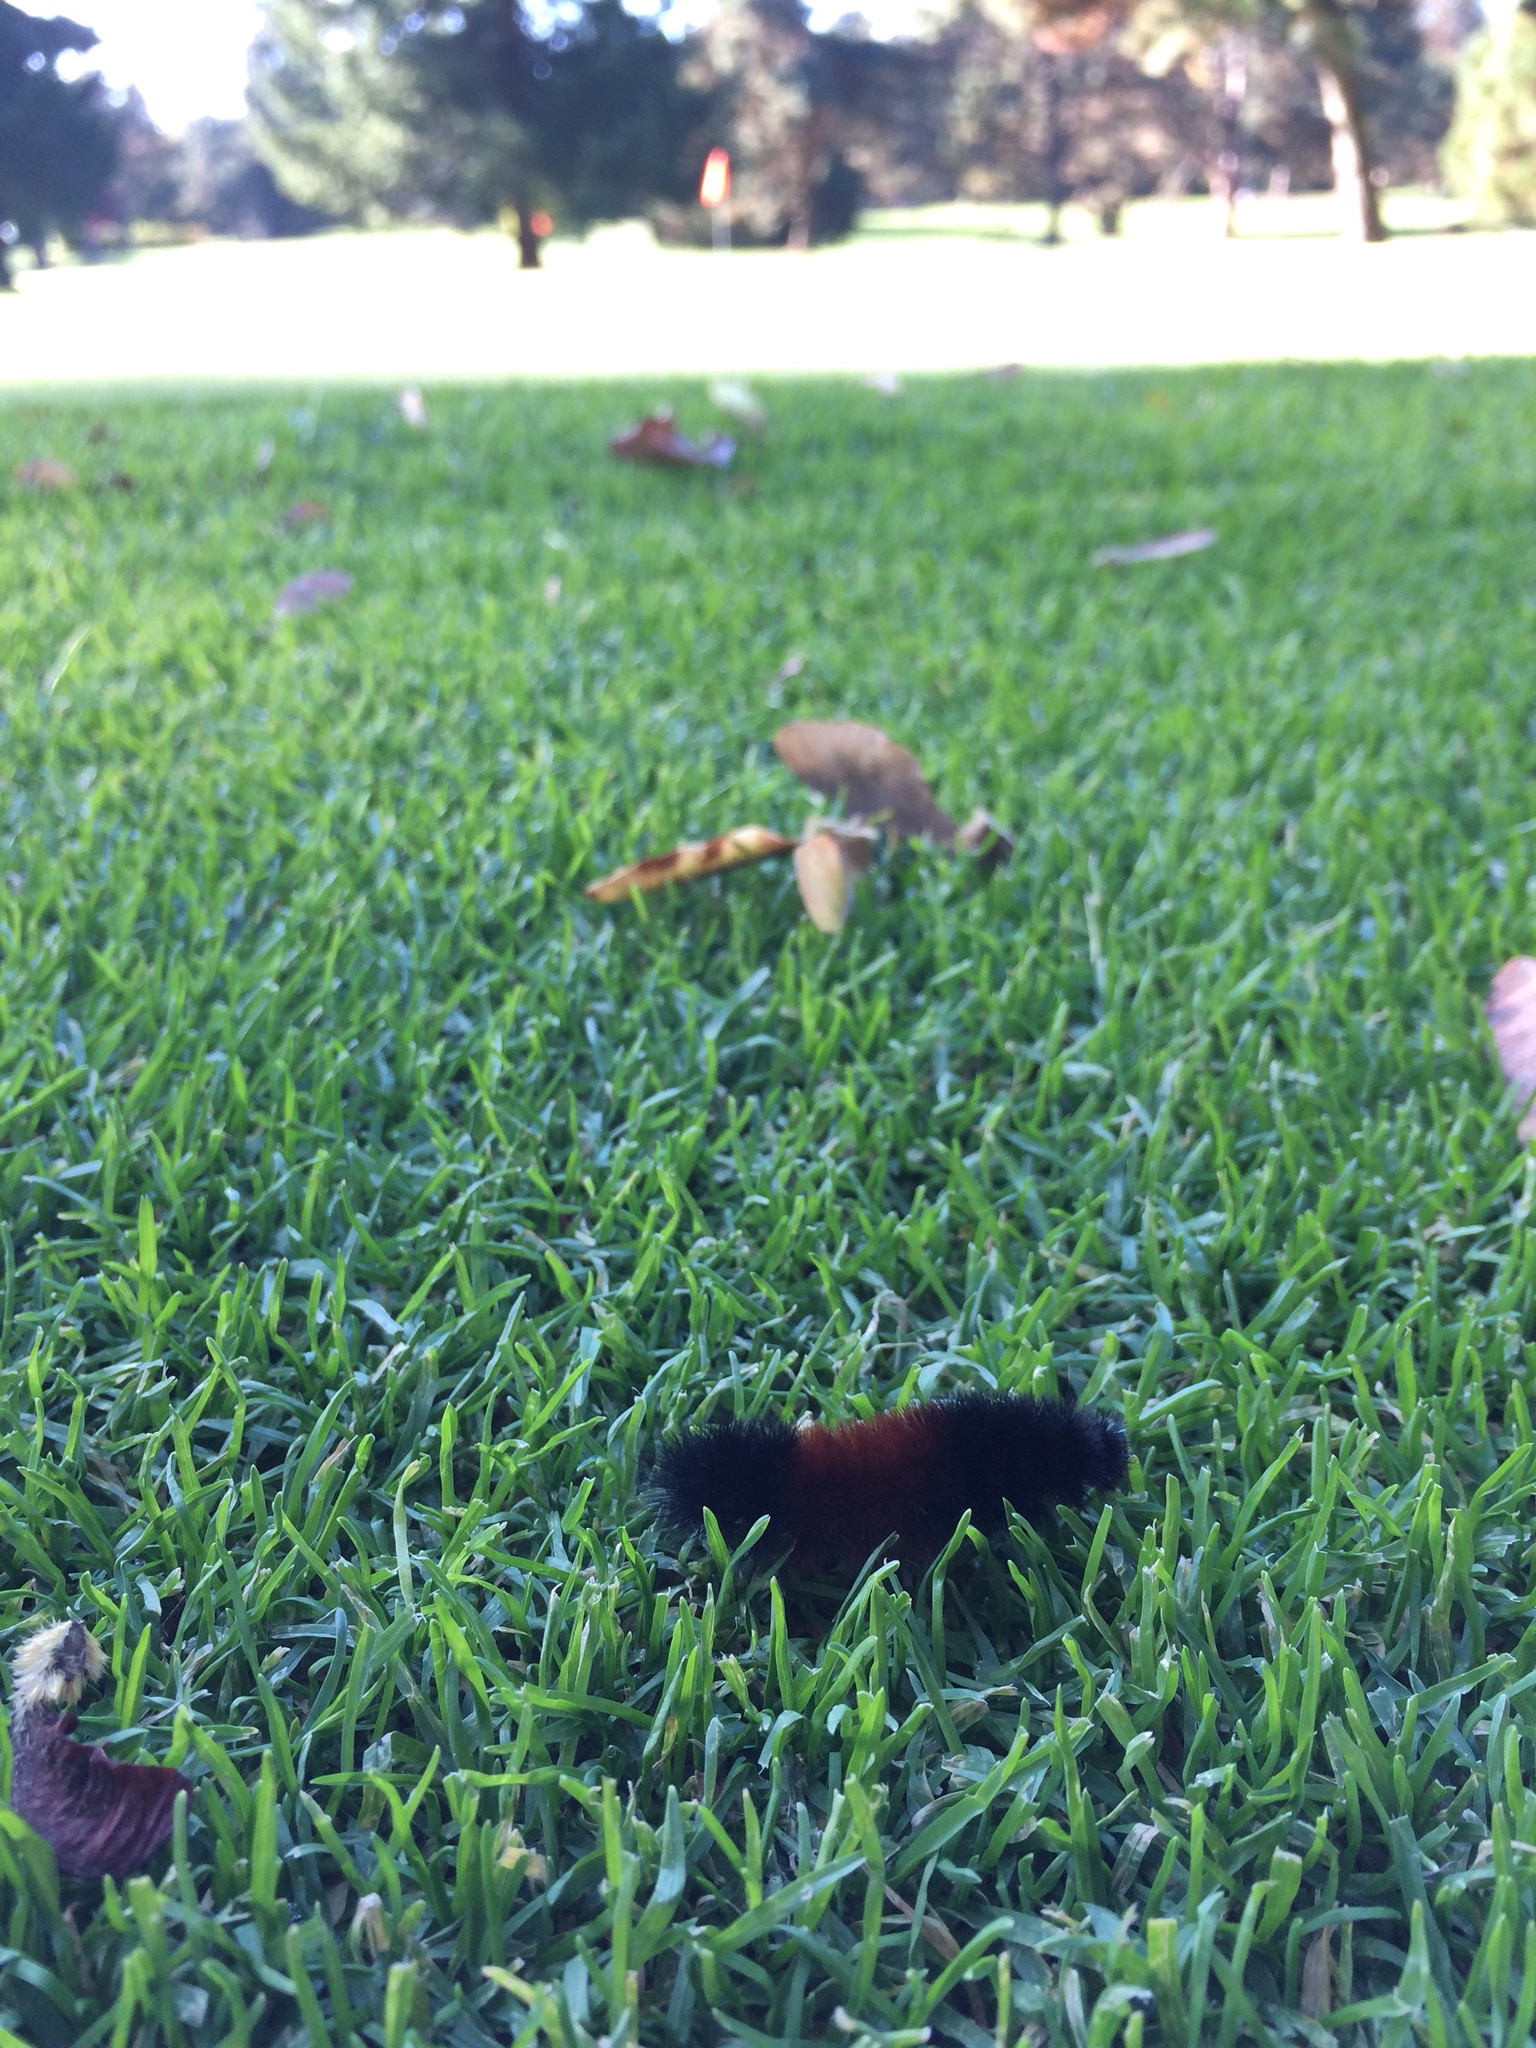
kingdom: Animalia
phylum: Arthropoda
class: Insecta
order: Lepidoptera
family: Erebidae
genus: Pyrrharctia
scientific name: Pyrrharctia isabella
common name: Isabella tiger moth
